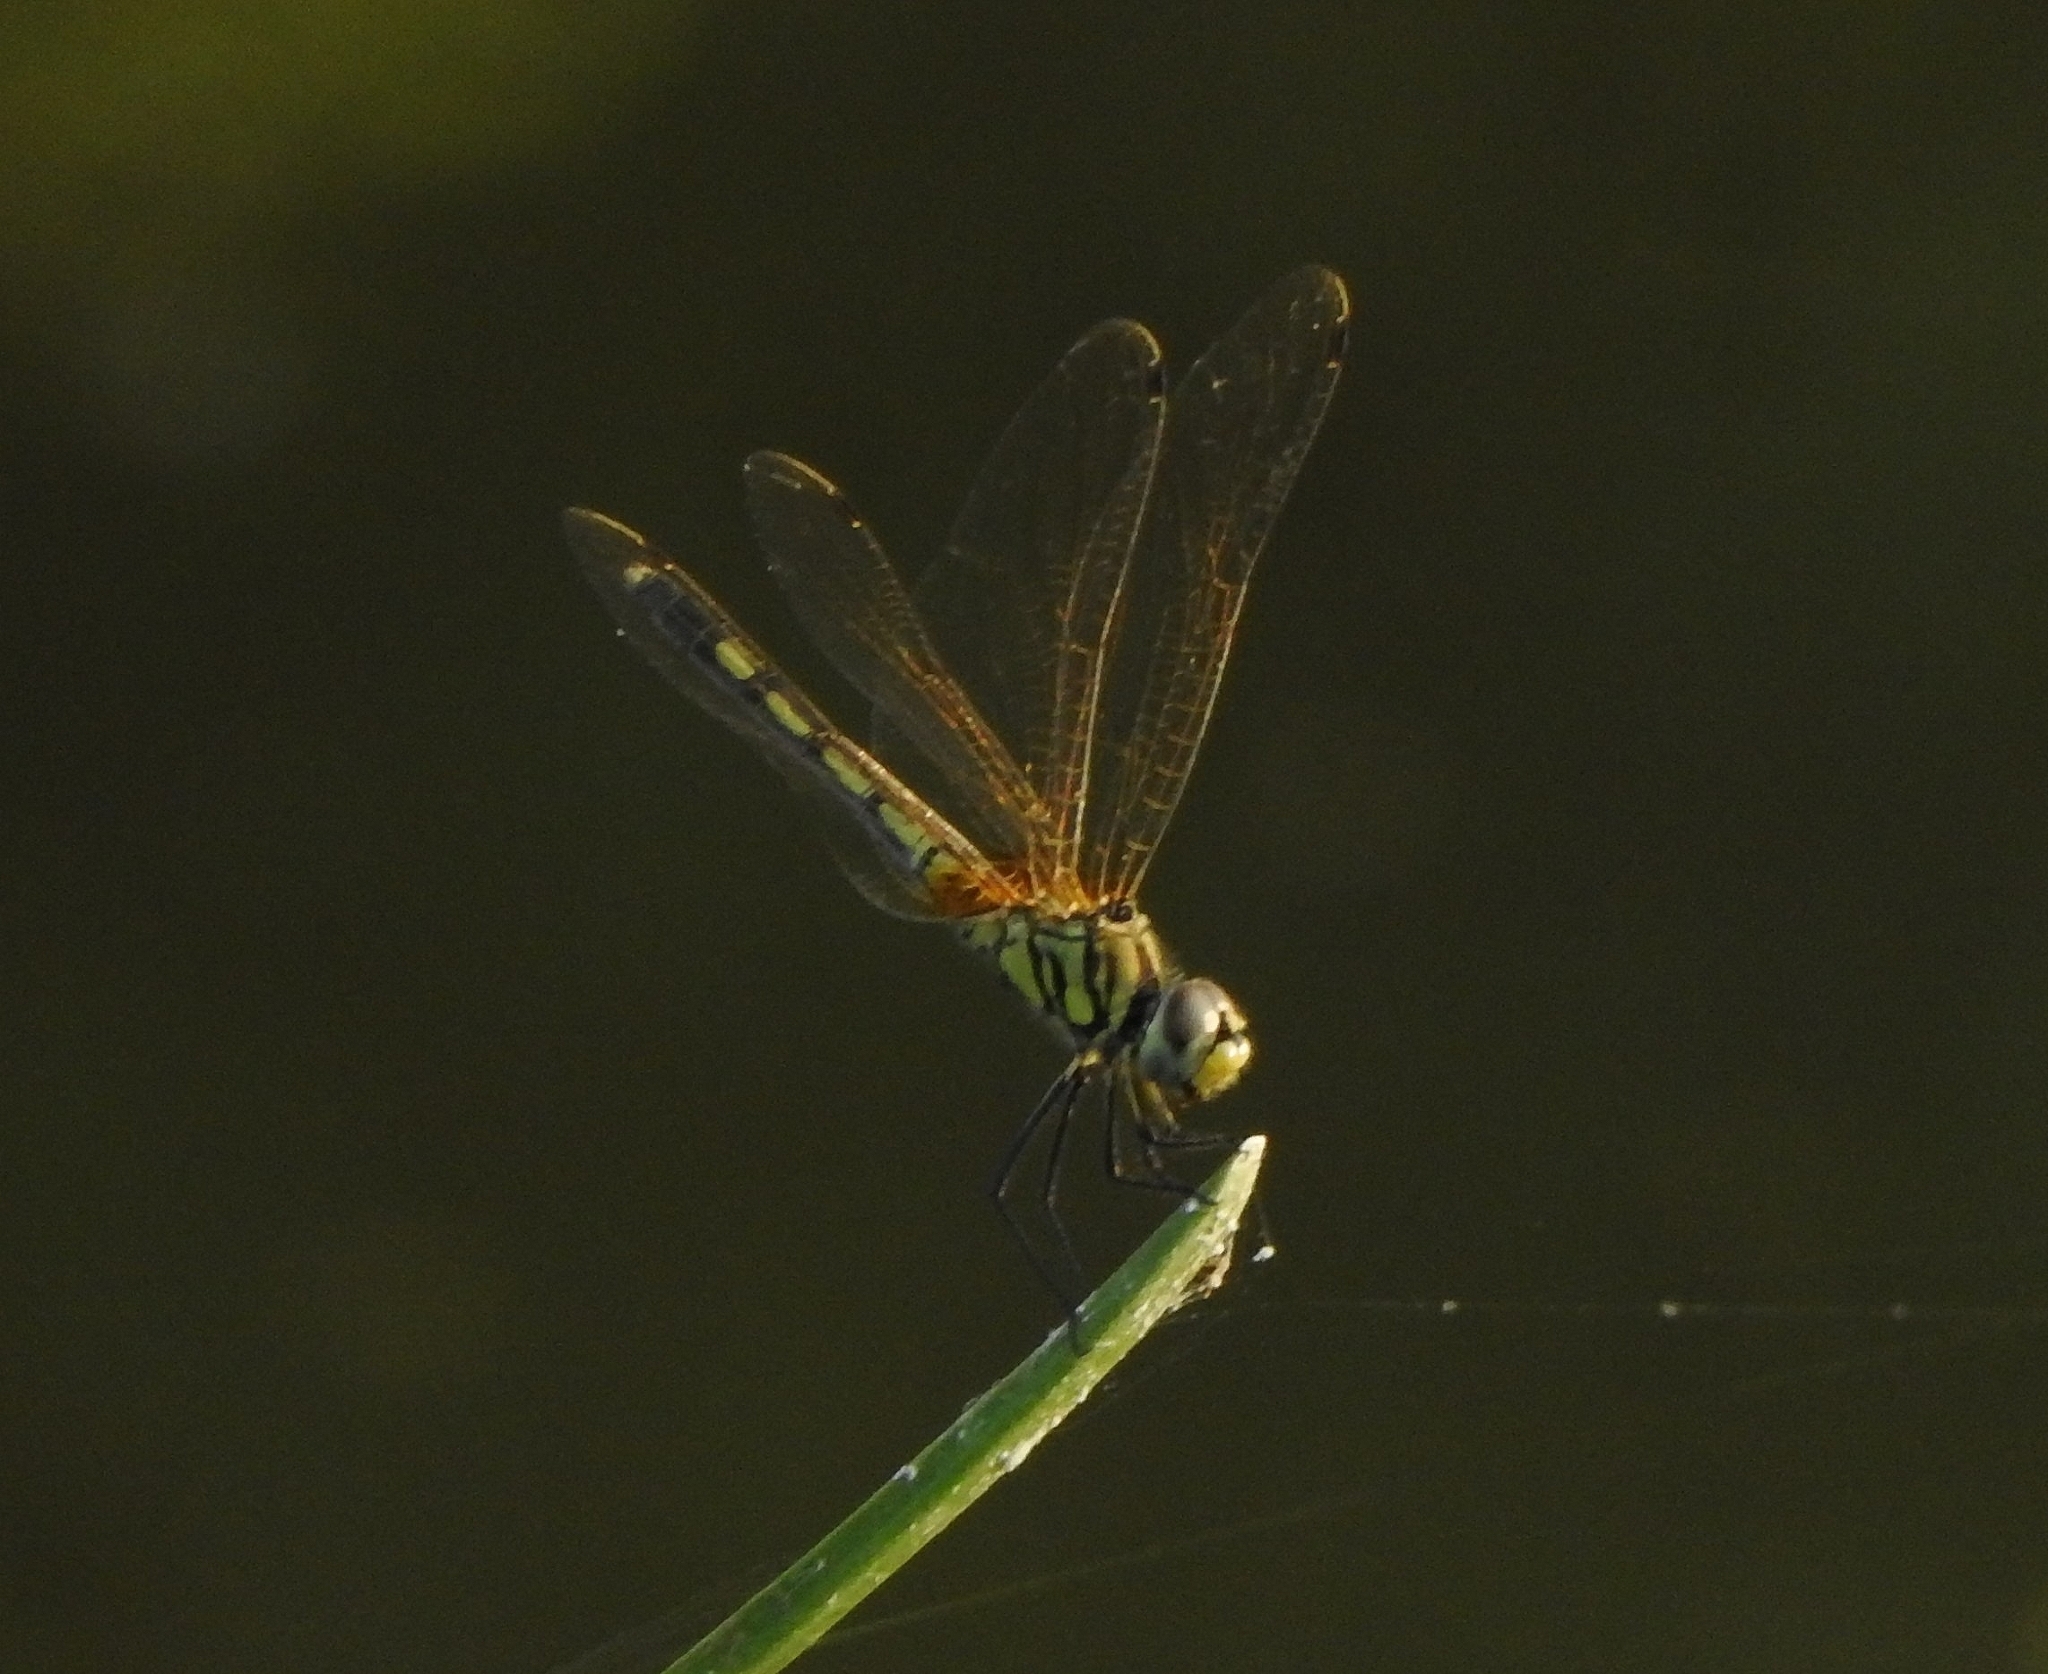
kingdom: Animalia
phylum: Arthropoda
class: Insecta
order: Odonata
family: Libellulidae
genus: Trithemis
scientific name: Trithemis pallidinervis
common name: Dancing dropwing
